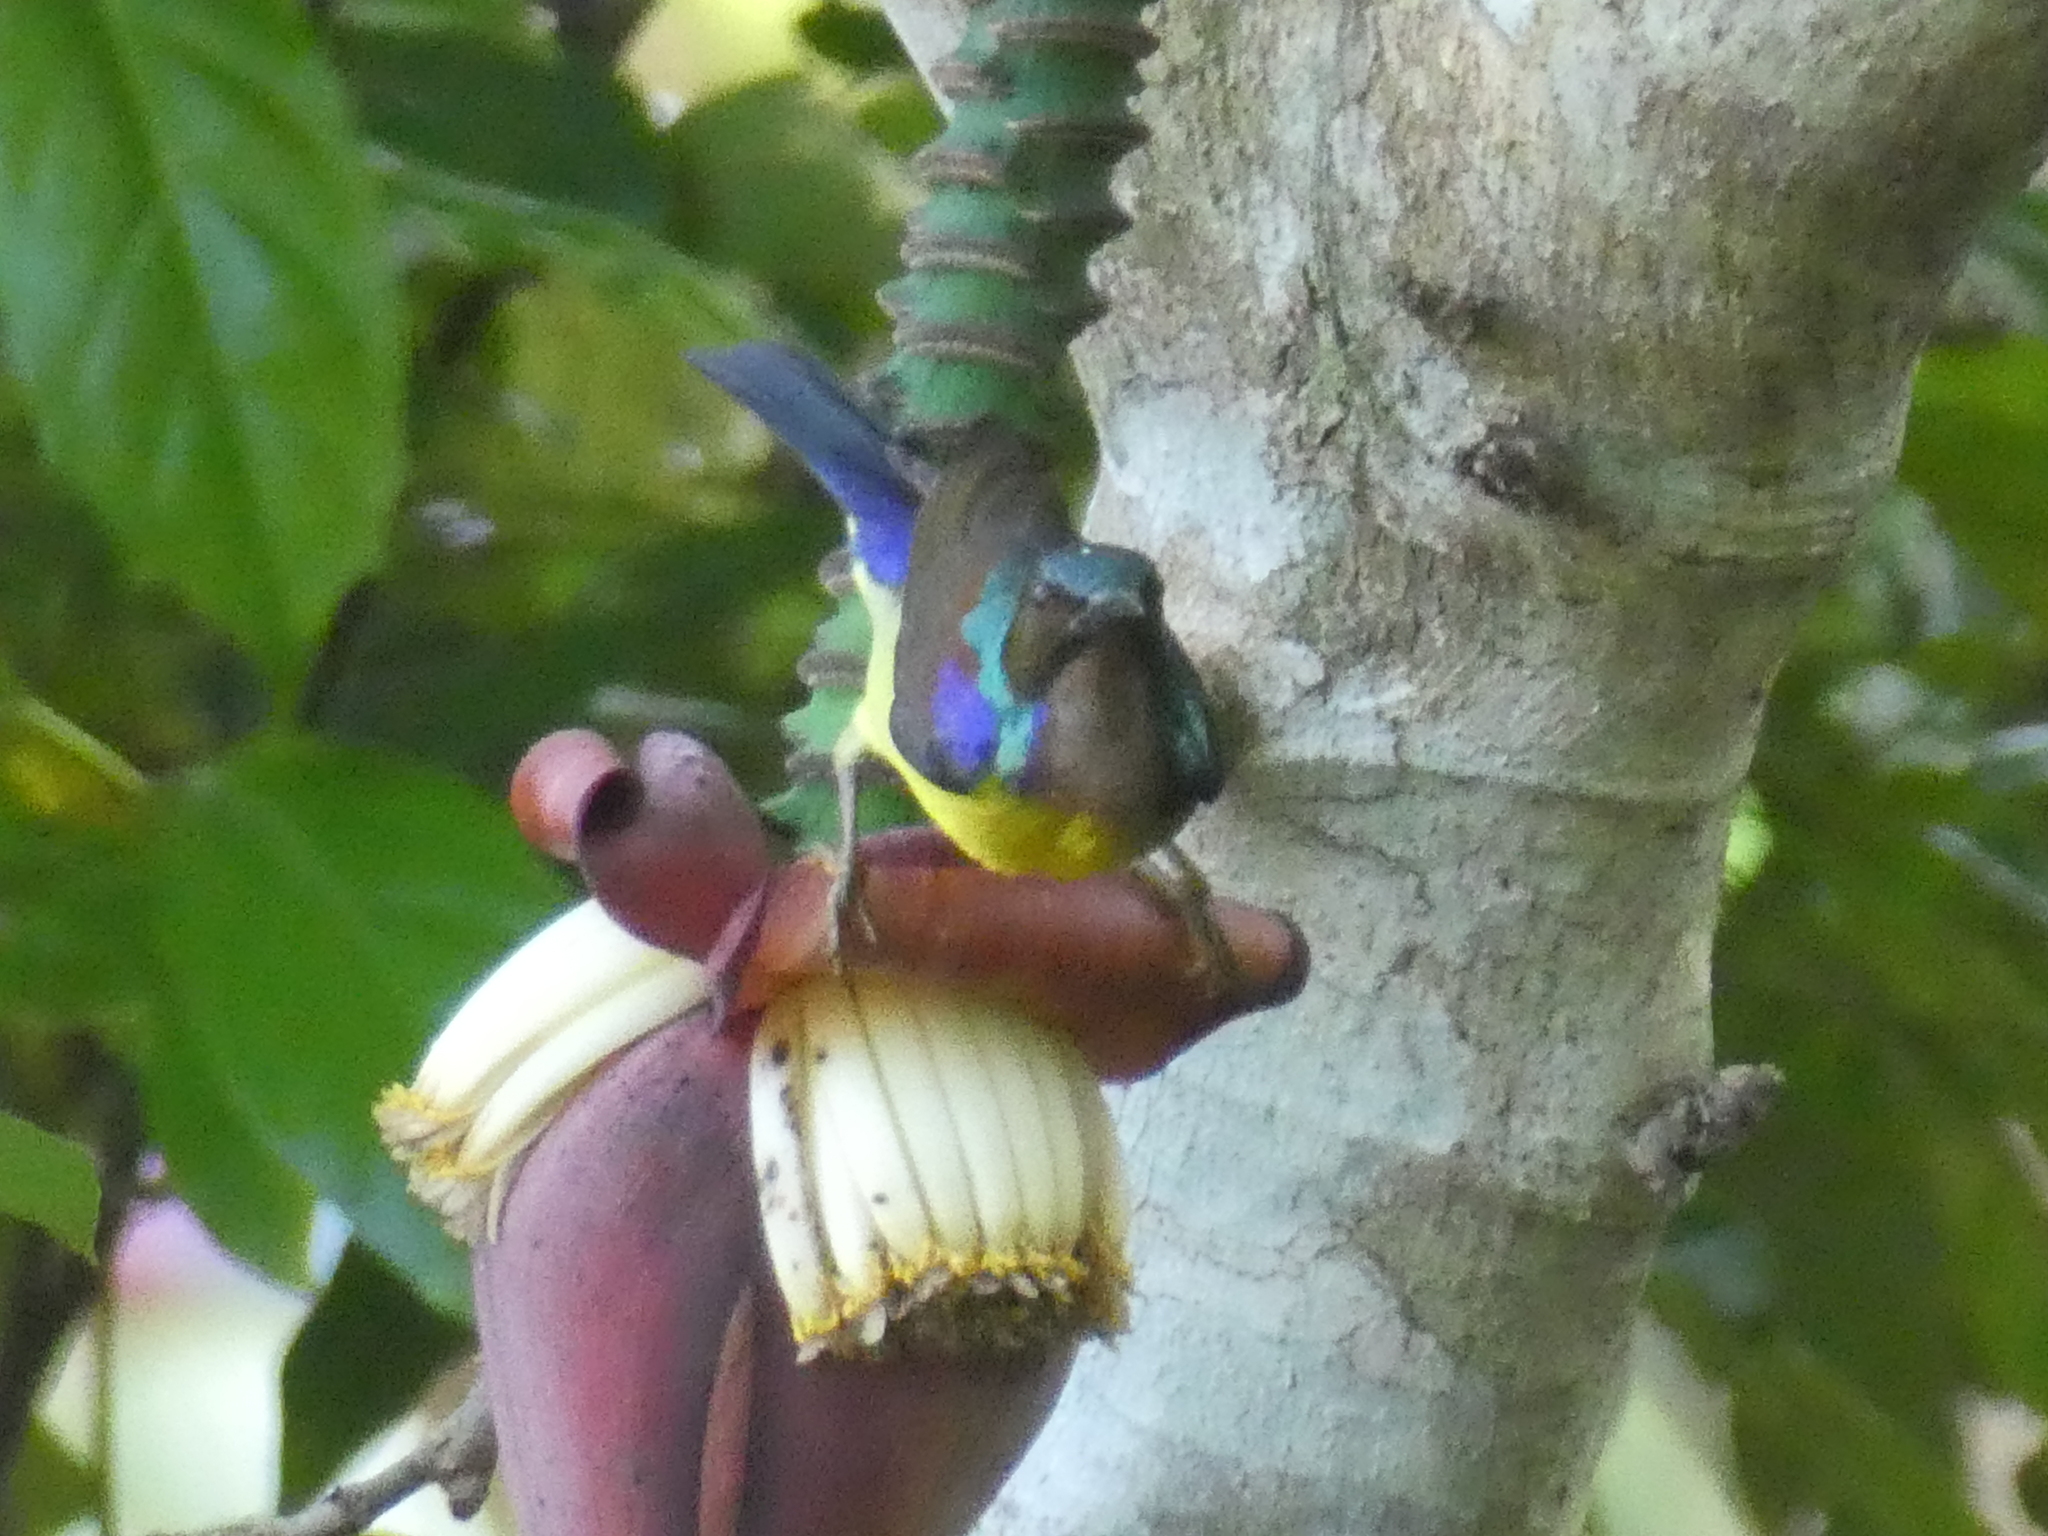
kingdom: Animalia
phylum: Chordata
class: Aves
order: Passeriformes
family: Nectariniidae
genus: Anthreptes
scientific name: Anthreptes malacensis
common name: Brown-throated sunbird
